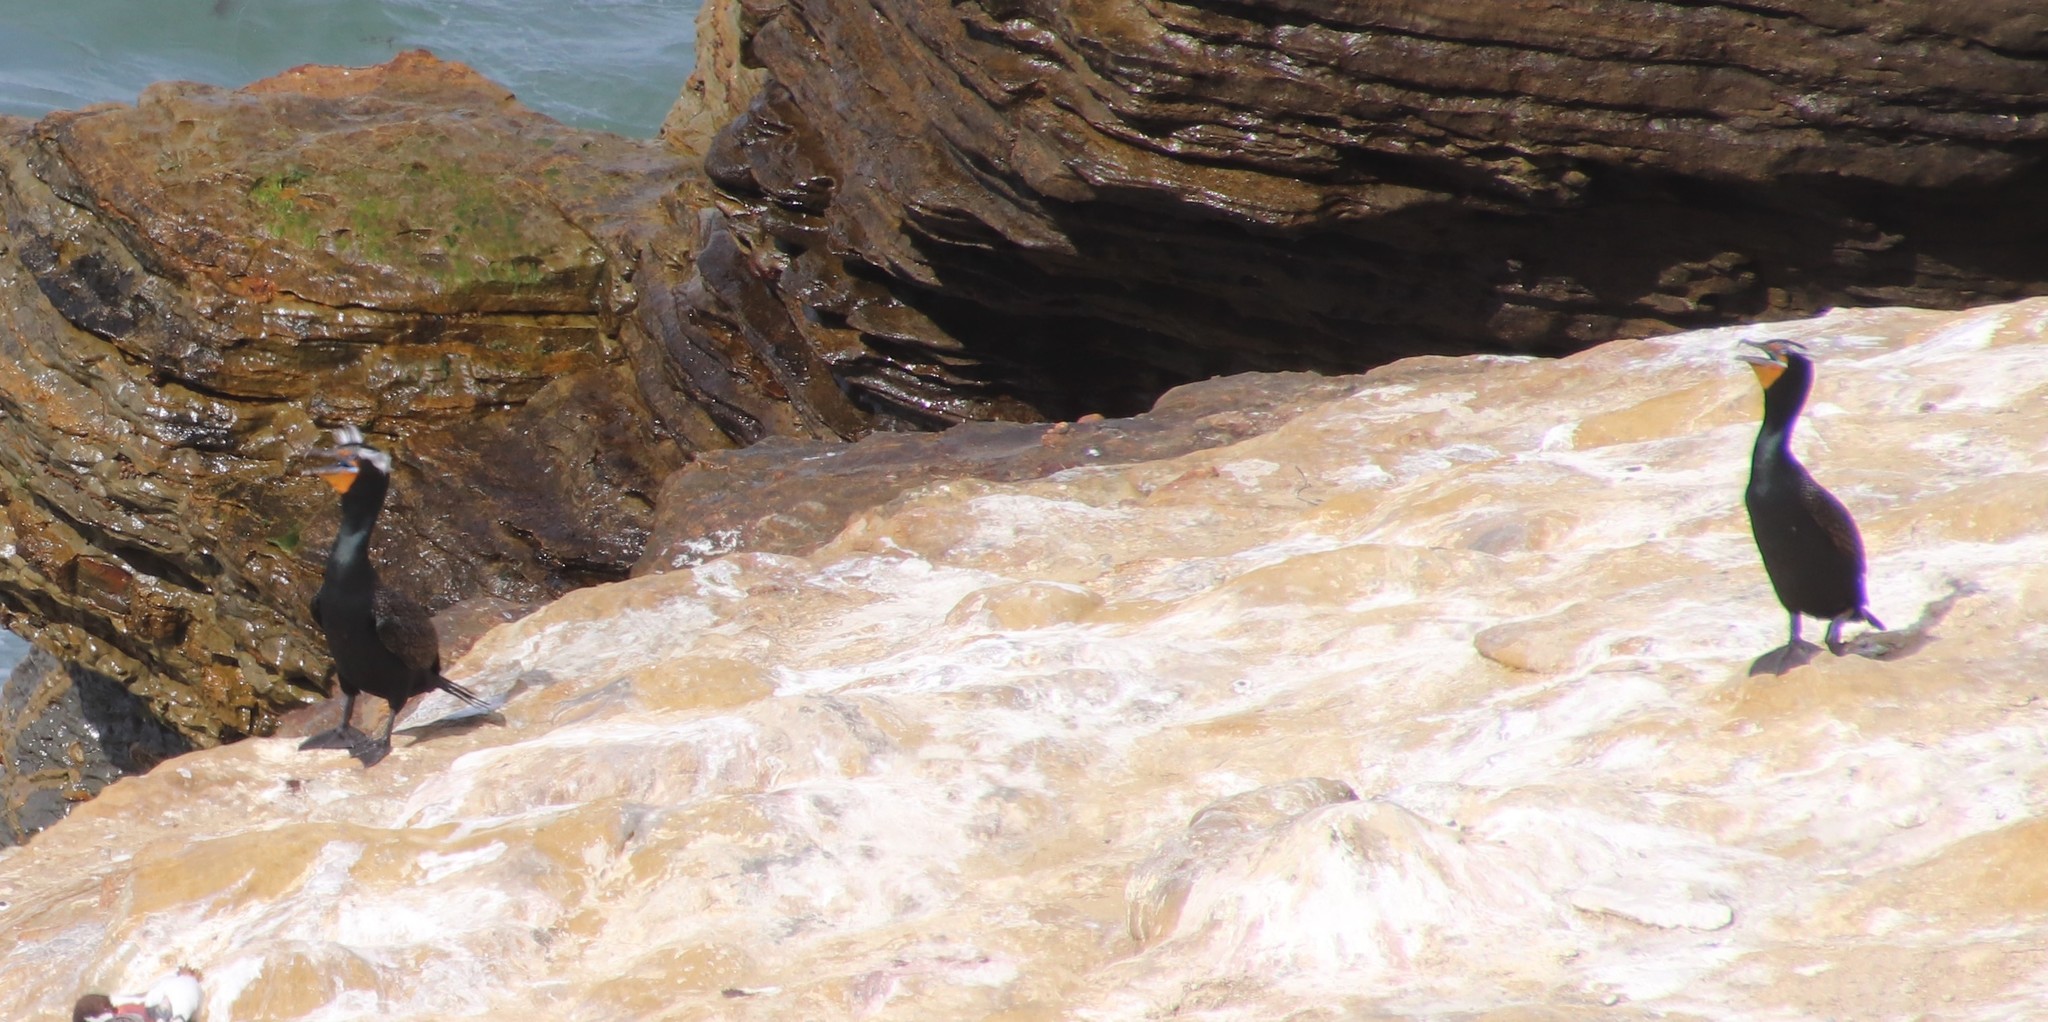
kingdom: Animalia
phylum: Chordata
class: Aves
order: Suliformes
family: Phalacrocoracidae
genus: Phalacrocorax
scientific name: Phalacrocorax auritus
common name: Double-crested cormorant
